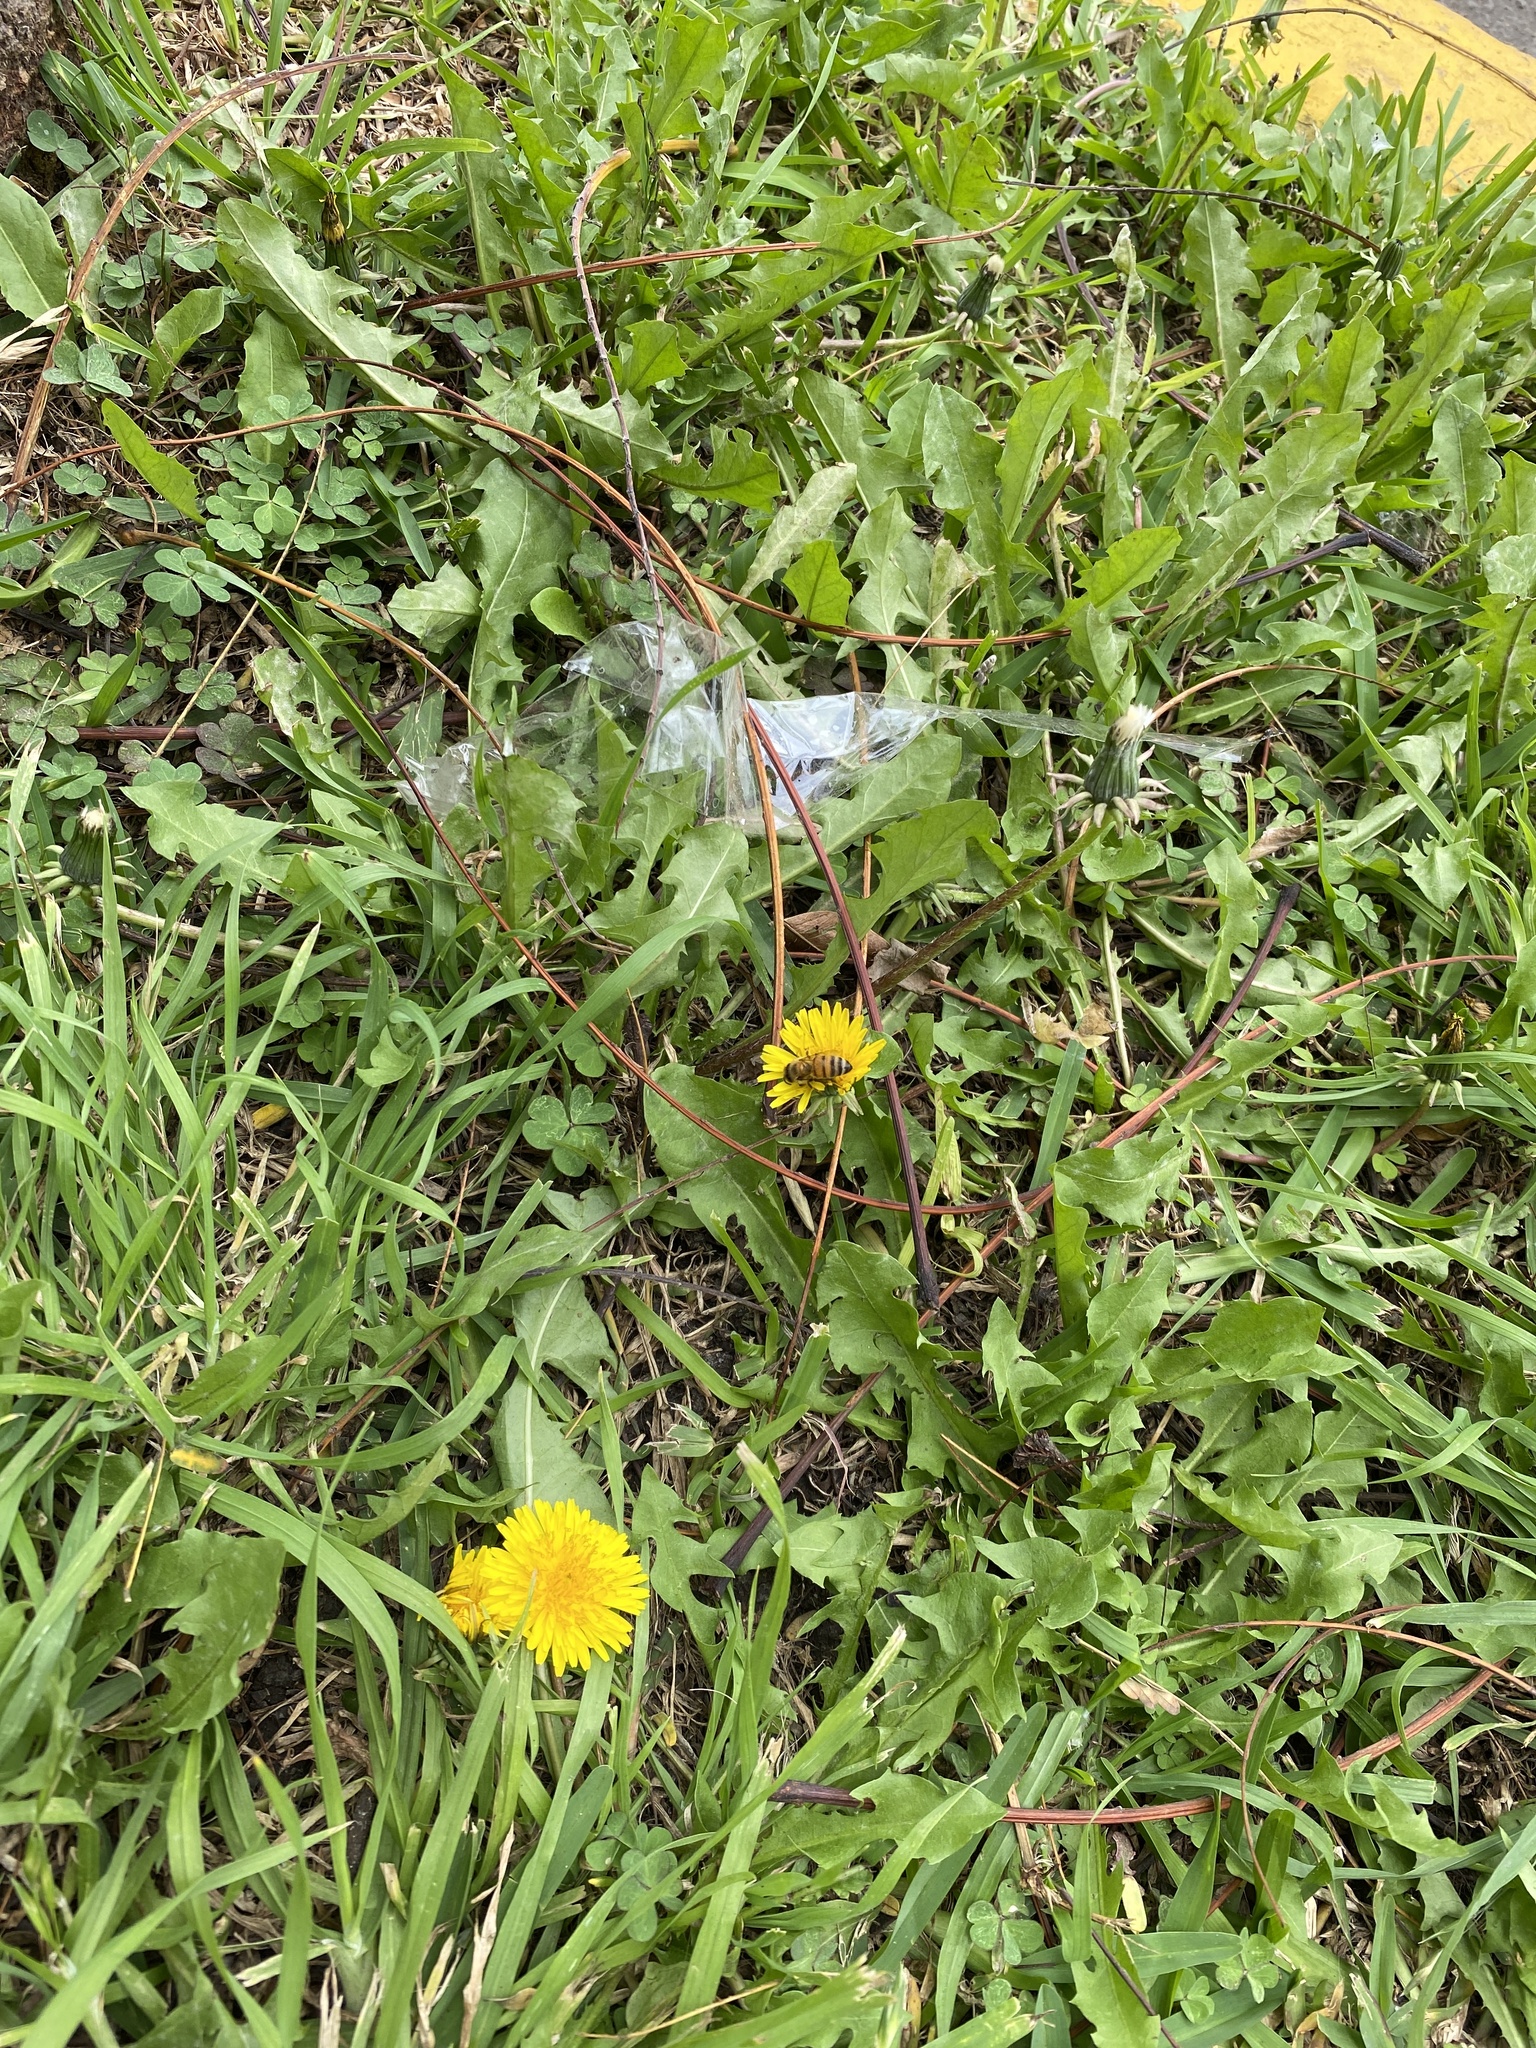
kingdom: Animalia
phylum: Arthropoda
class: Insecta
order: Hymenoptera
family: Apidae
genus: Apis
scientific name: Apis mellifera
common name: Honey bee
